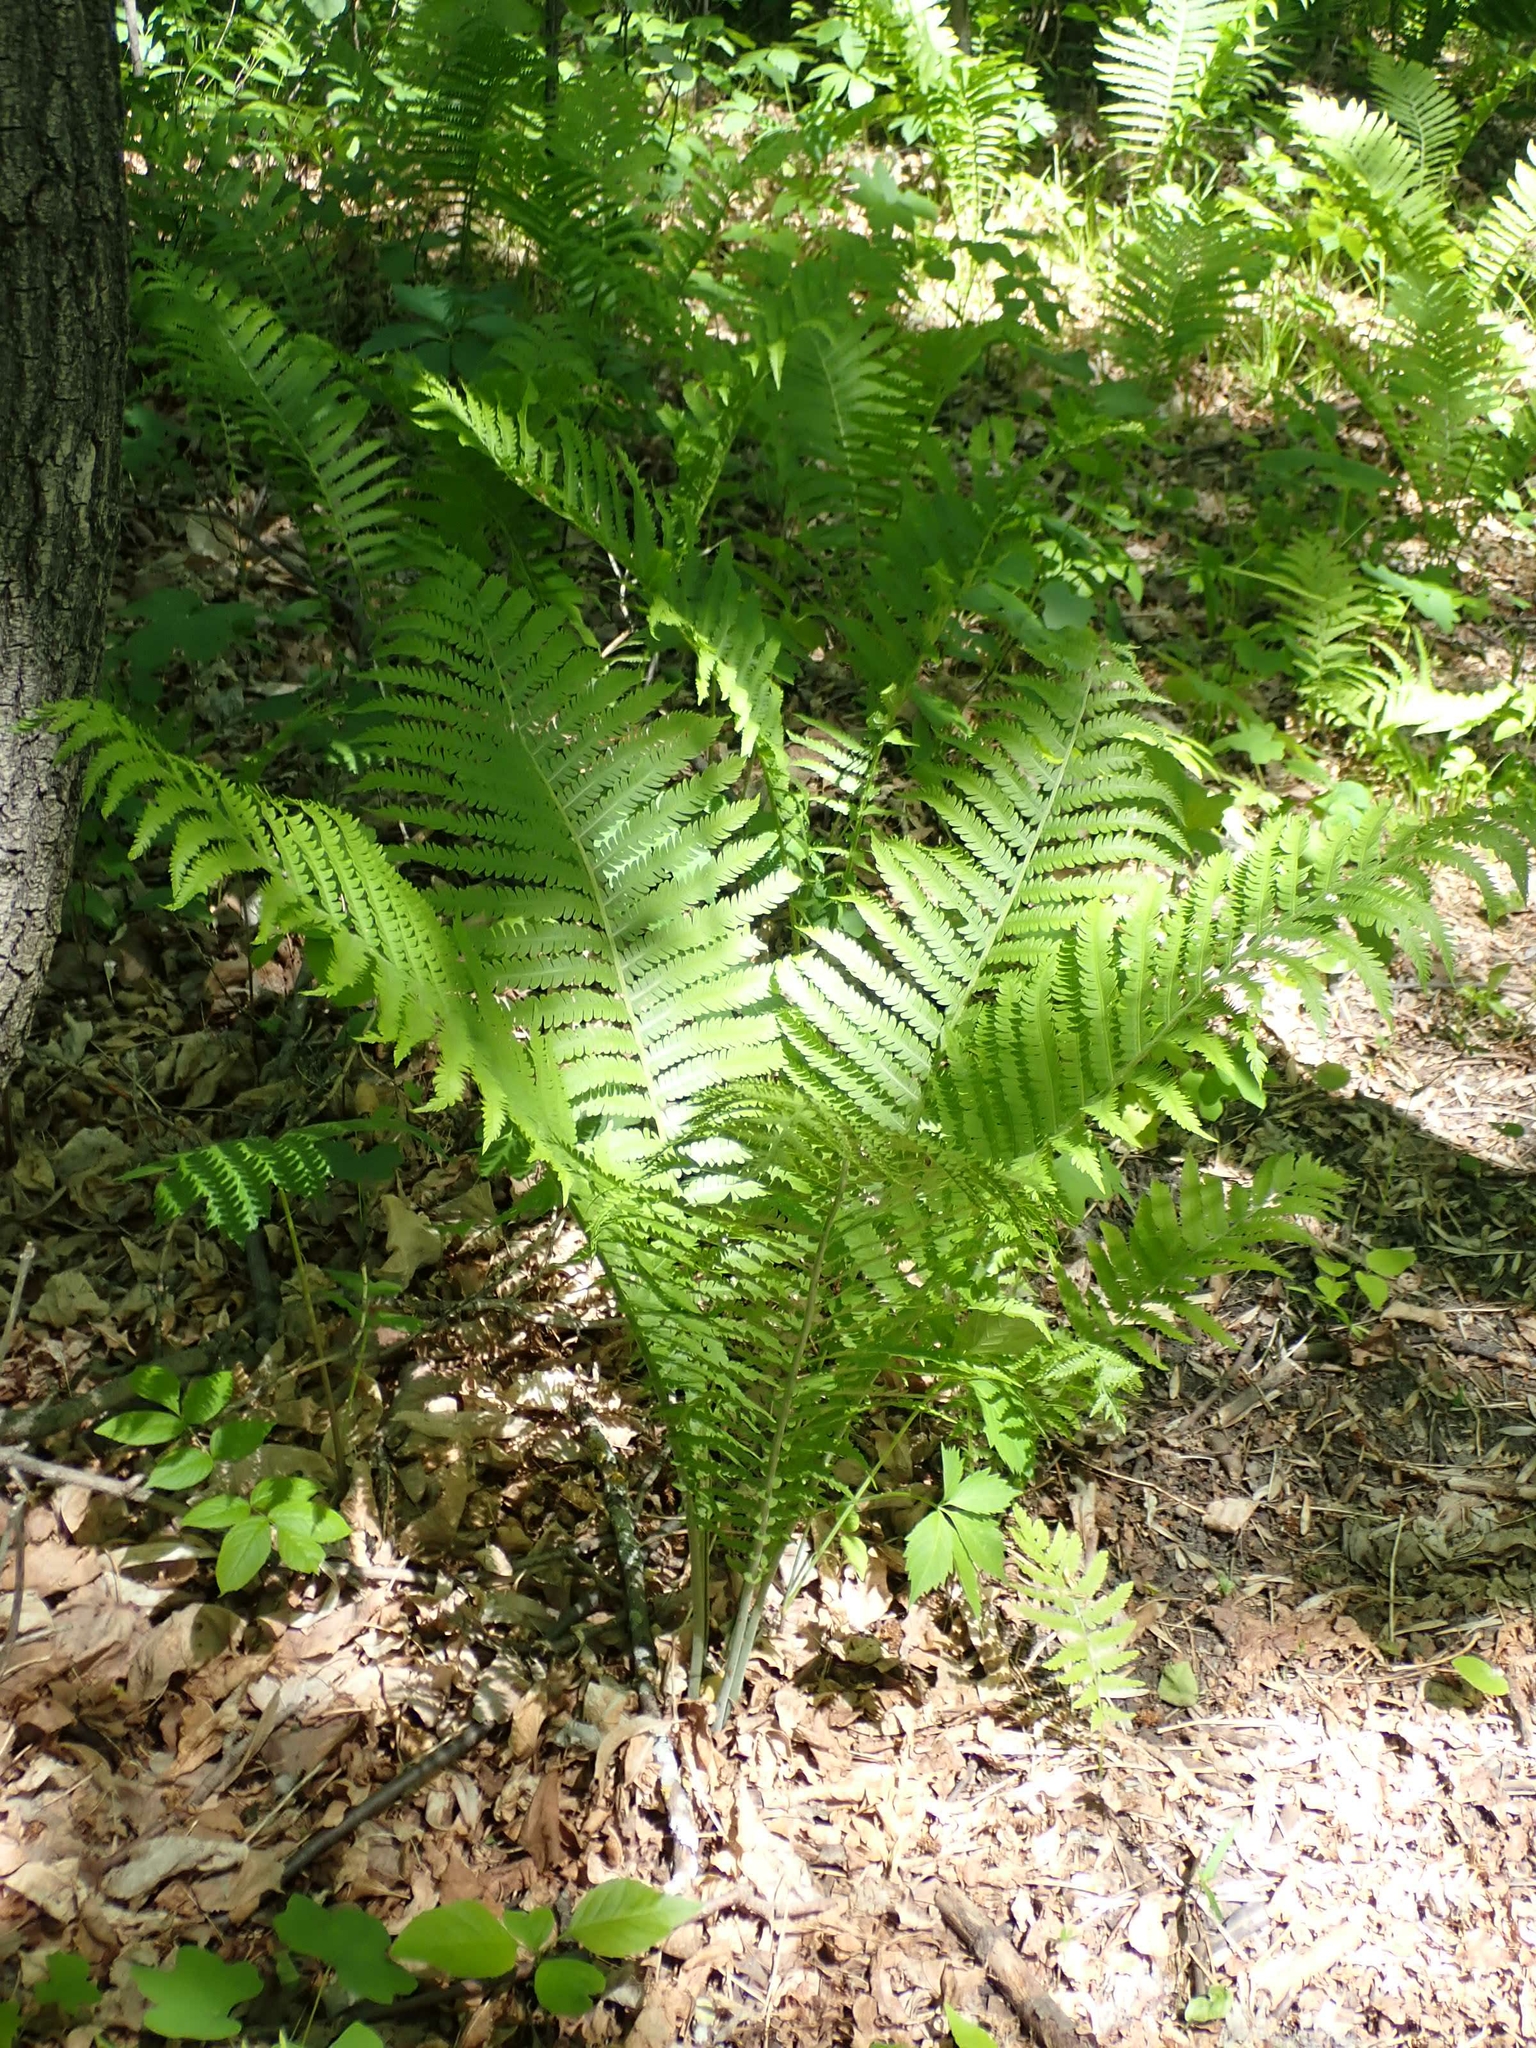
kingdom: Plantae
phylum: Tracheophyta
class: Polypodiopsida
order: Polypodiales
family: Onocleaceae
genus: Matteuccia
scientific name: Matteuccia struthiopteris
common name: Ostrich fern
